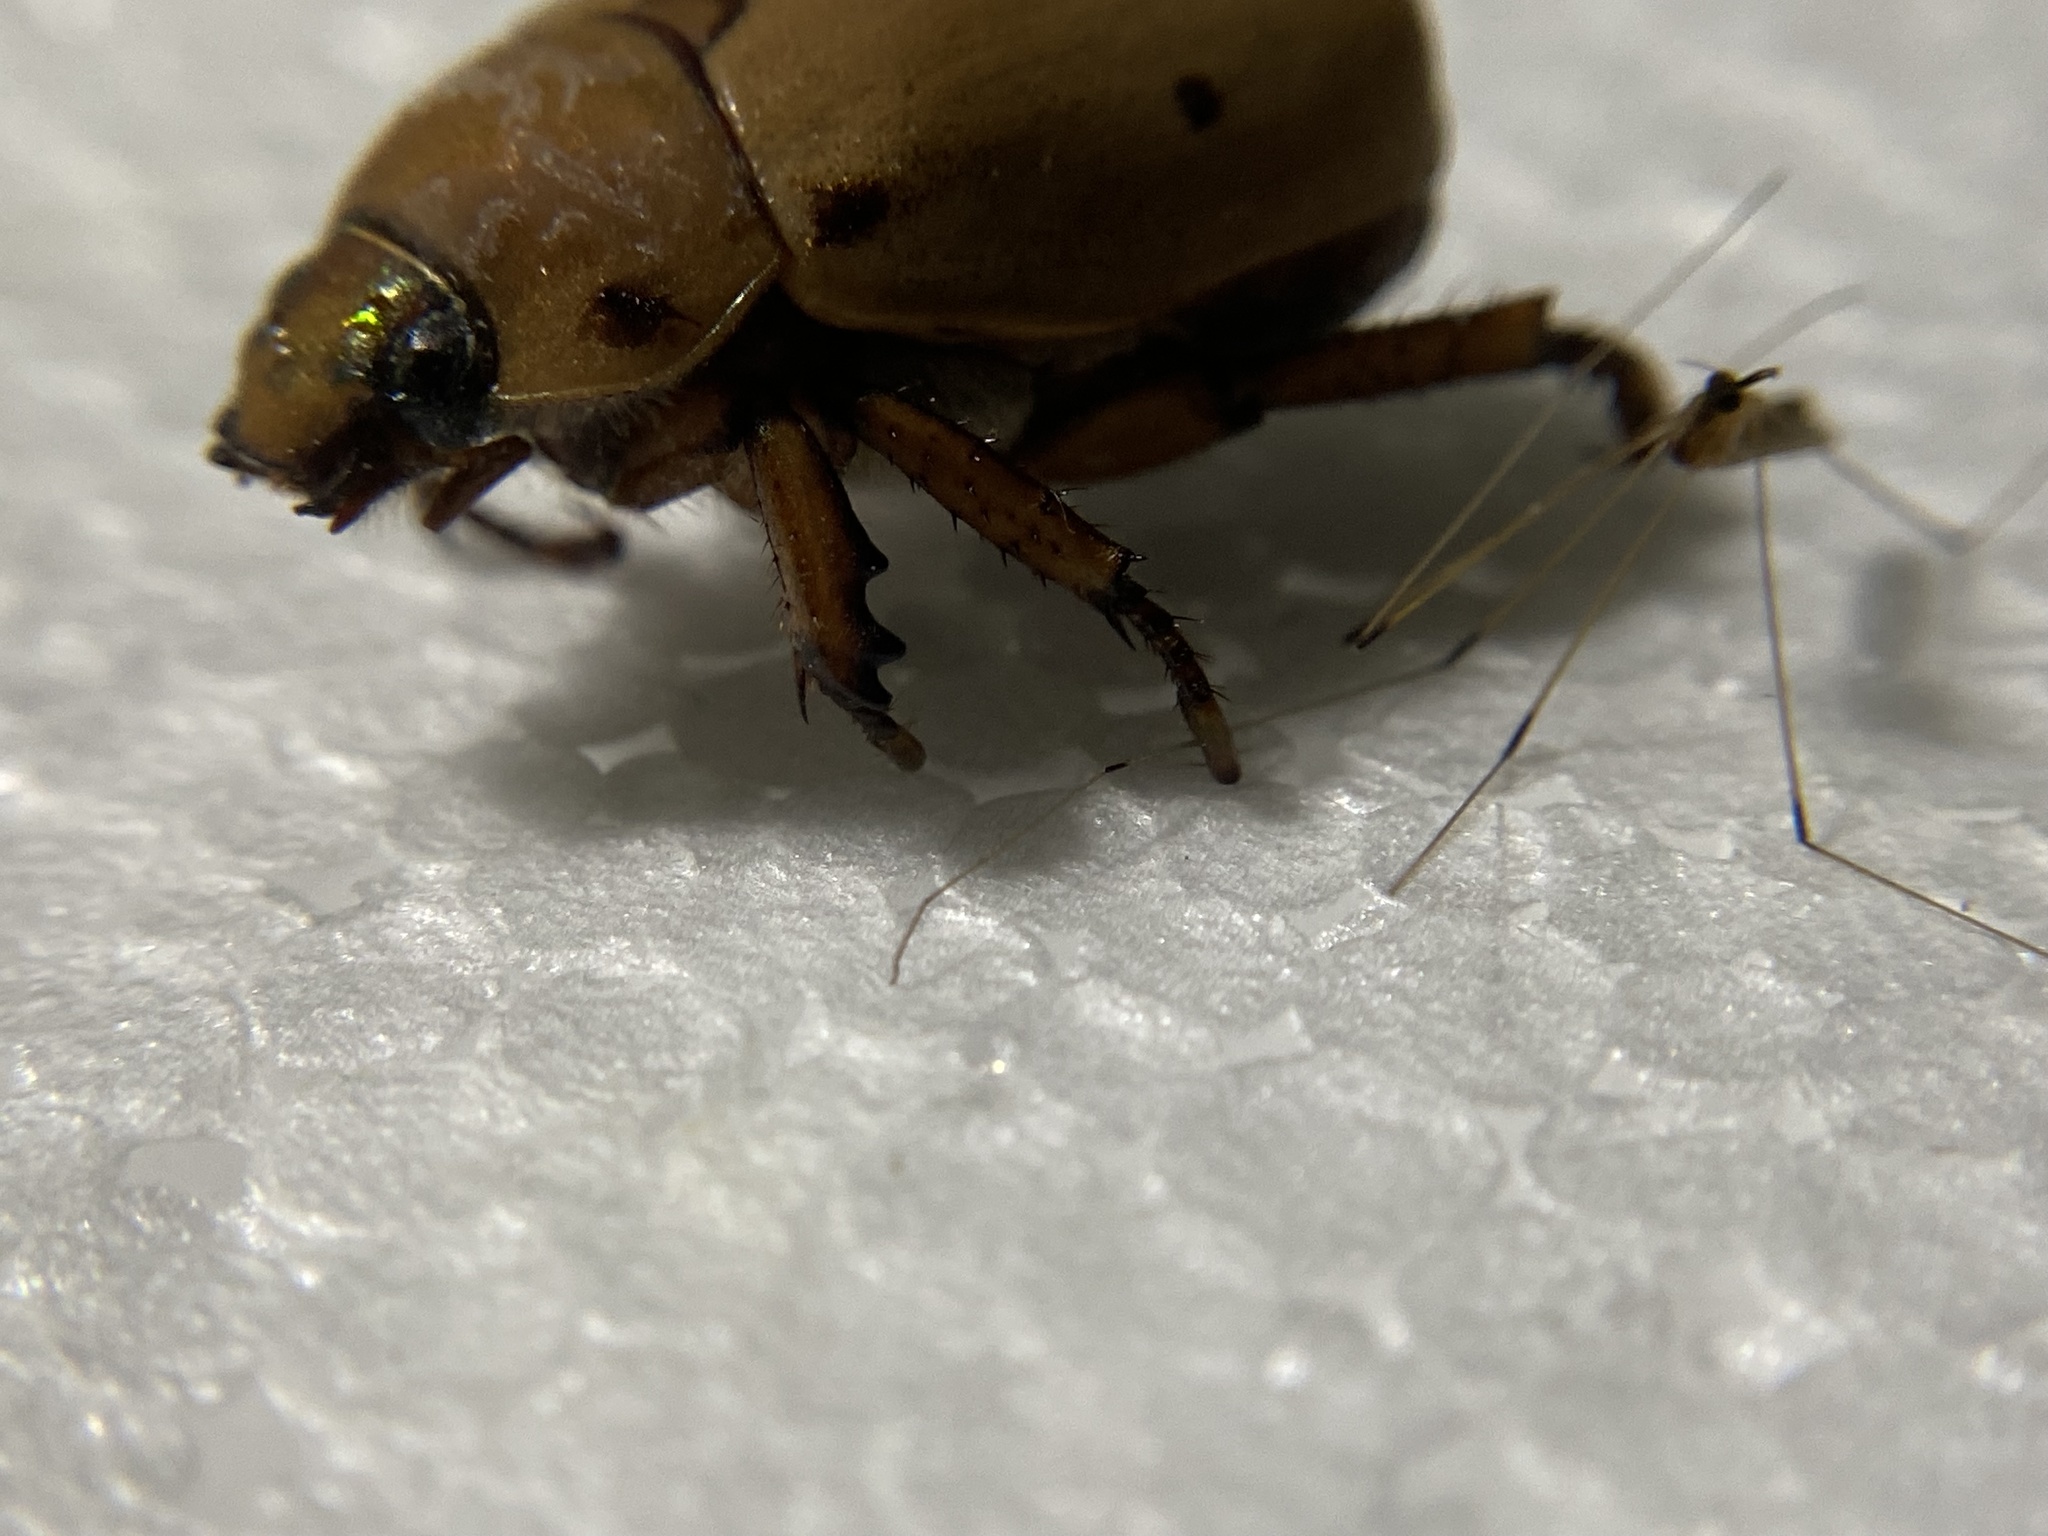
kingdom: Animalia
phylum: Arthropoda
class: Insecta
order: Coleoptera
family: Scarabaeidae
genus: Pelidnota
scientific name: Pelidnota punctata
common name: Grapevine beetle
